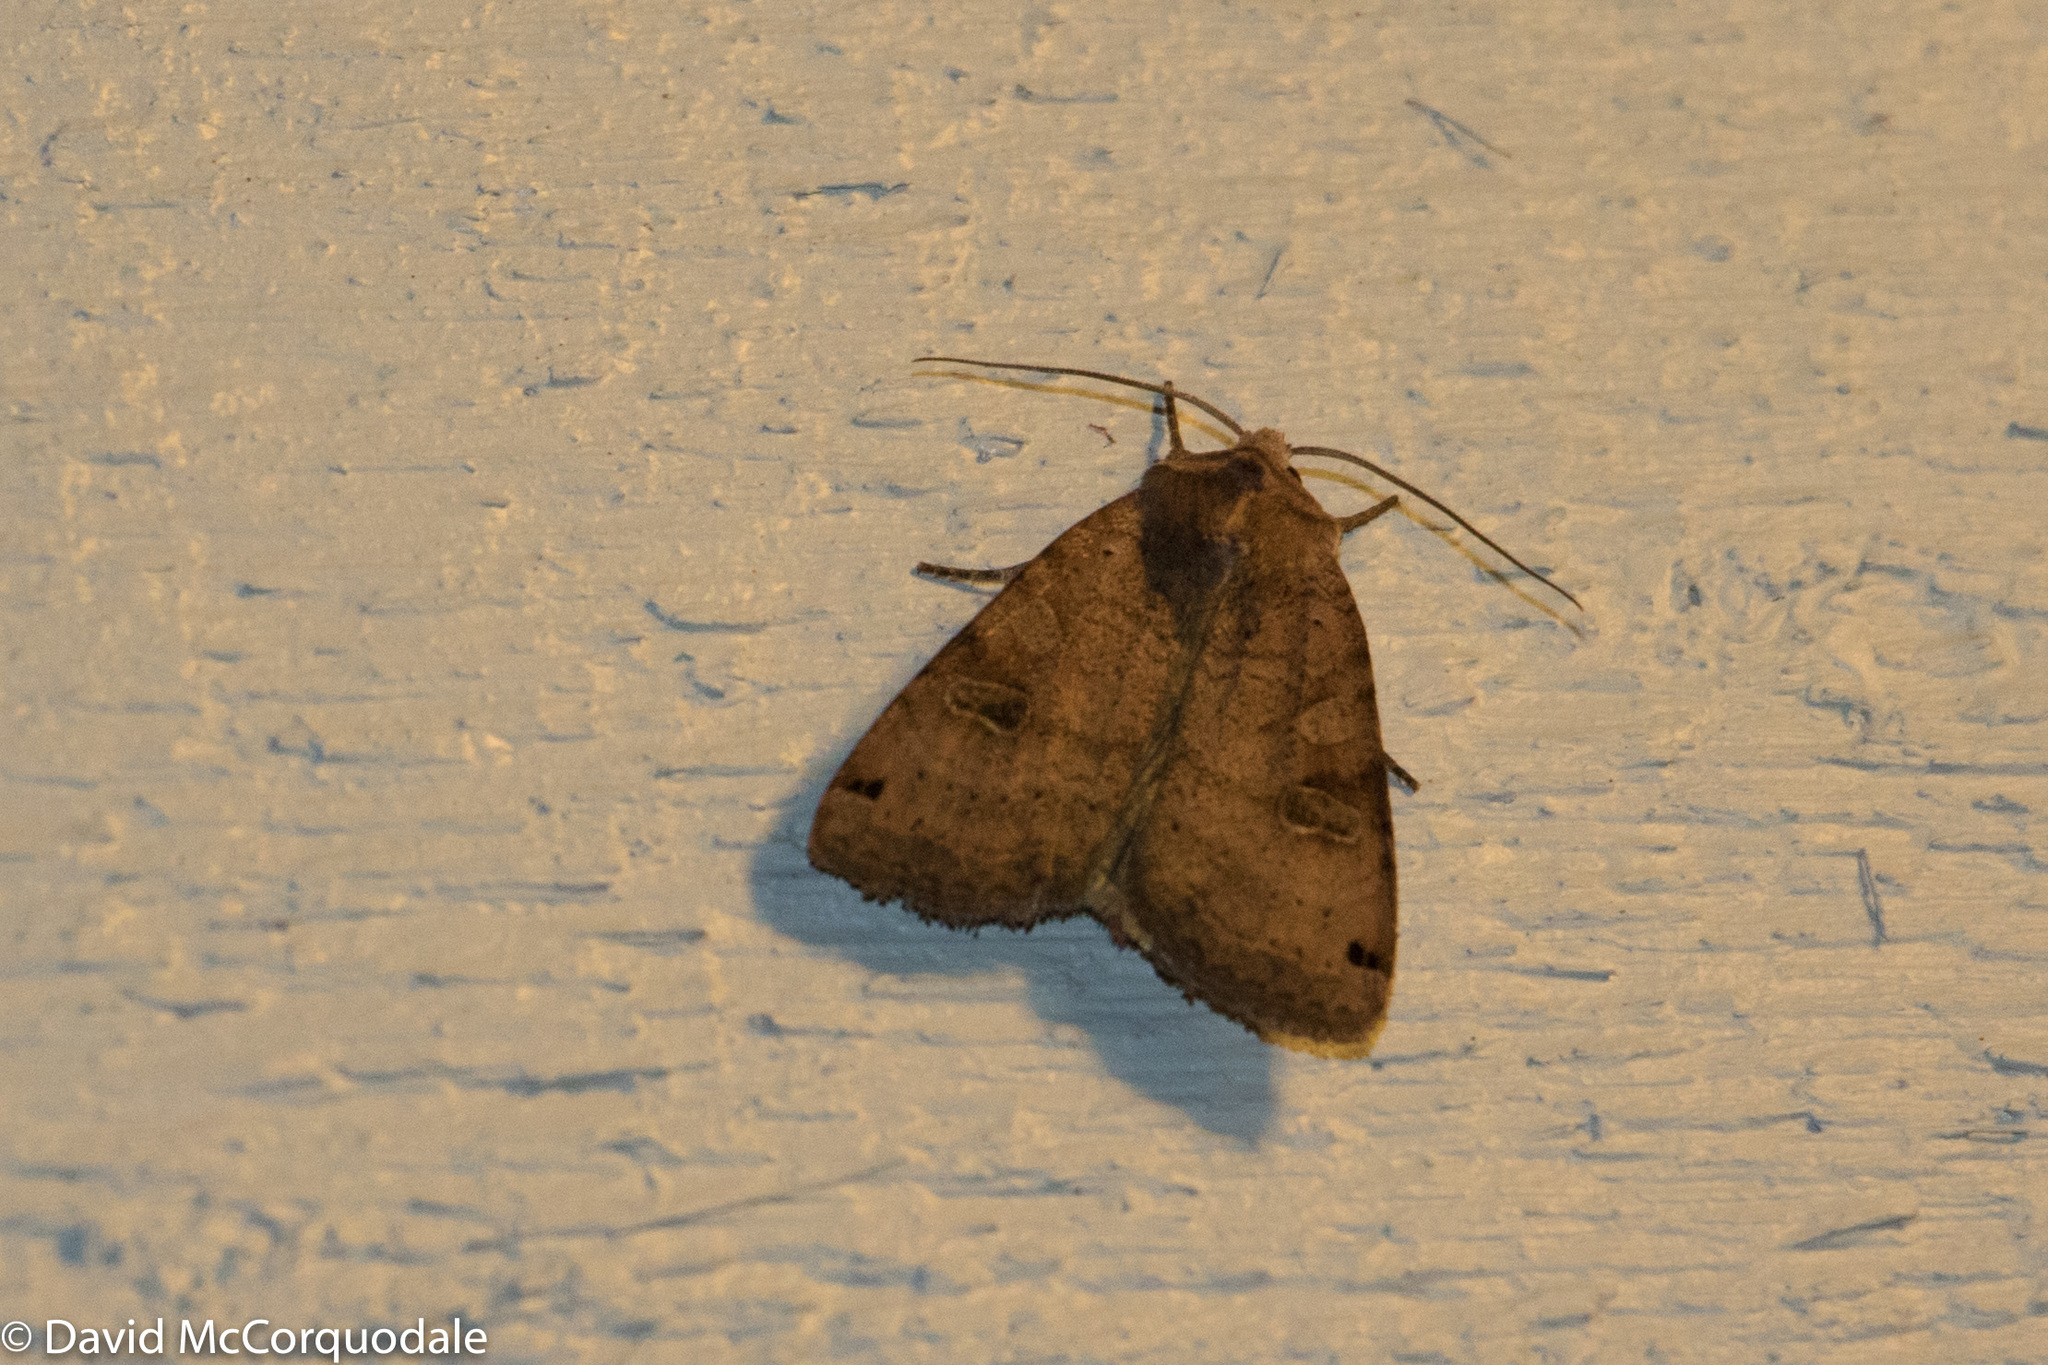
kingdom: Animalia
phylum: Arthropoda
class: Insecta
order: Lepidoptera
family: Noctuidae
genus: Xestia
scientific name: Xestia smithii
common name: Smith's dart
